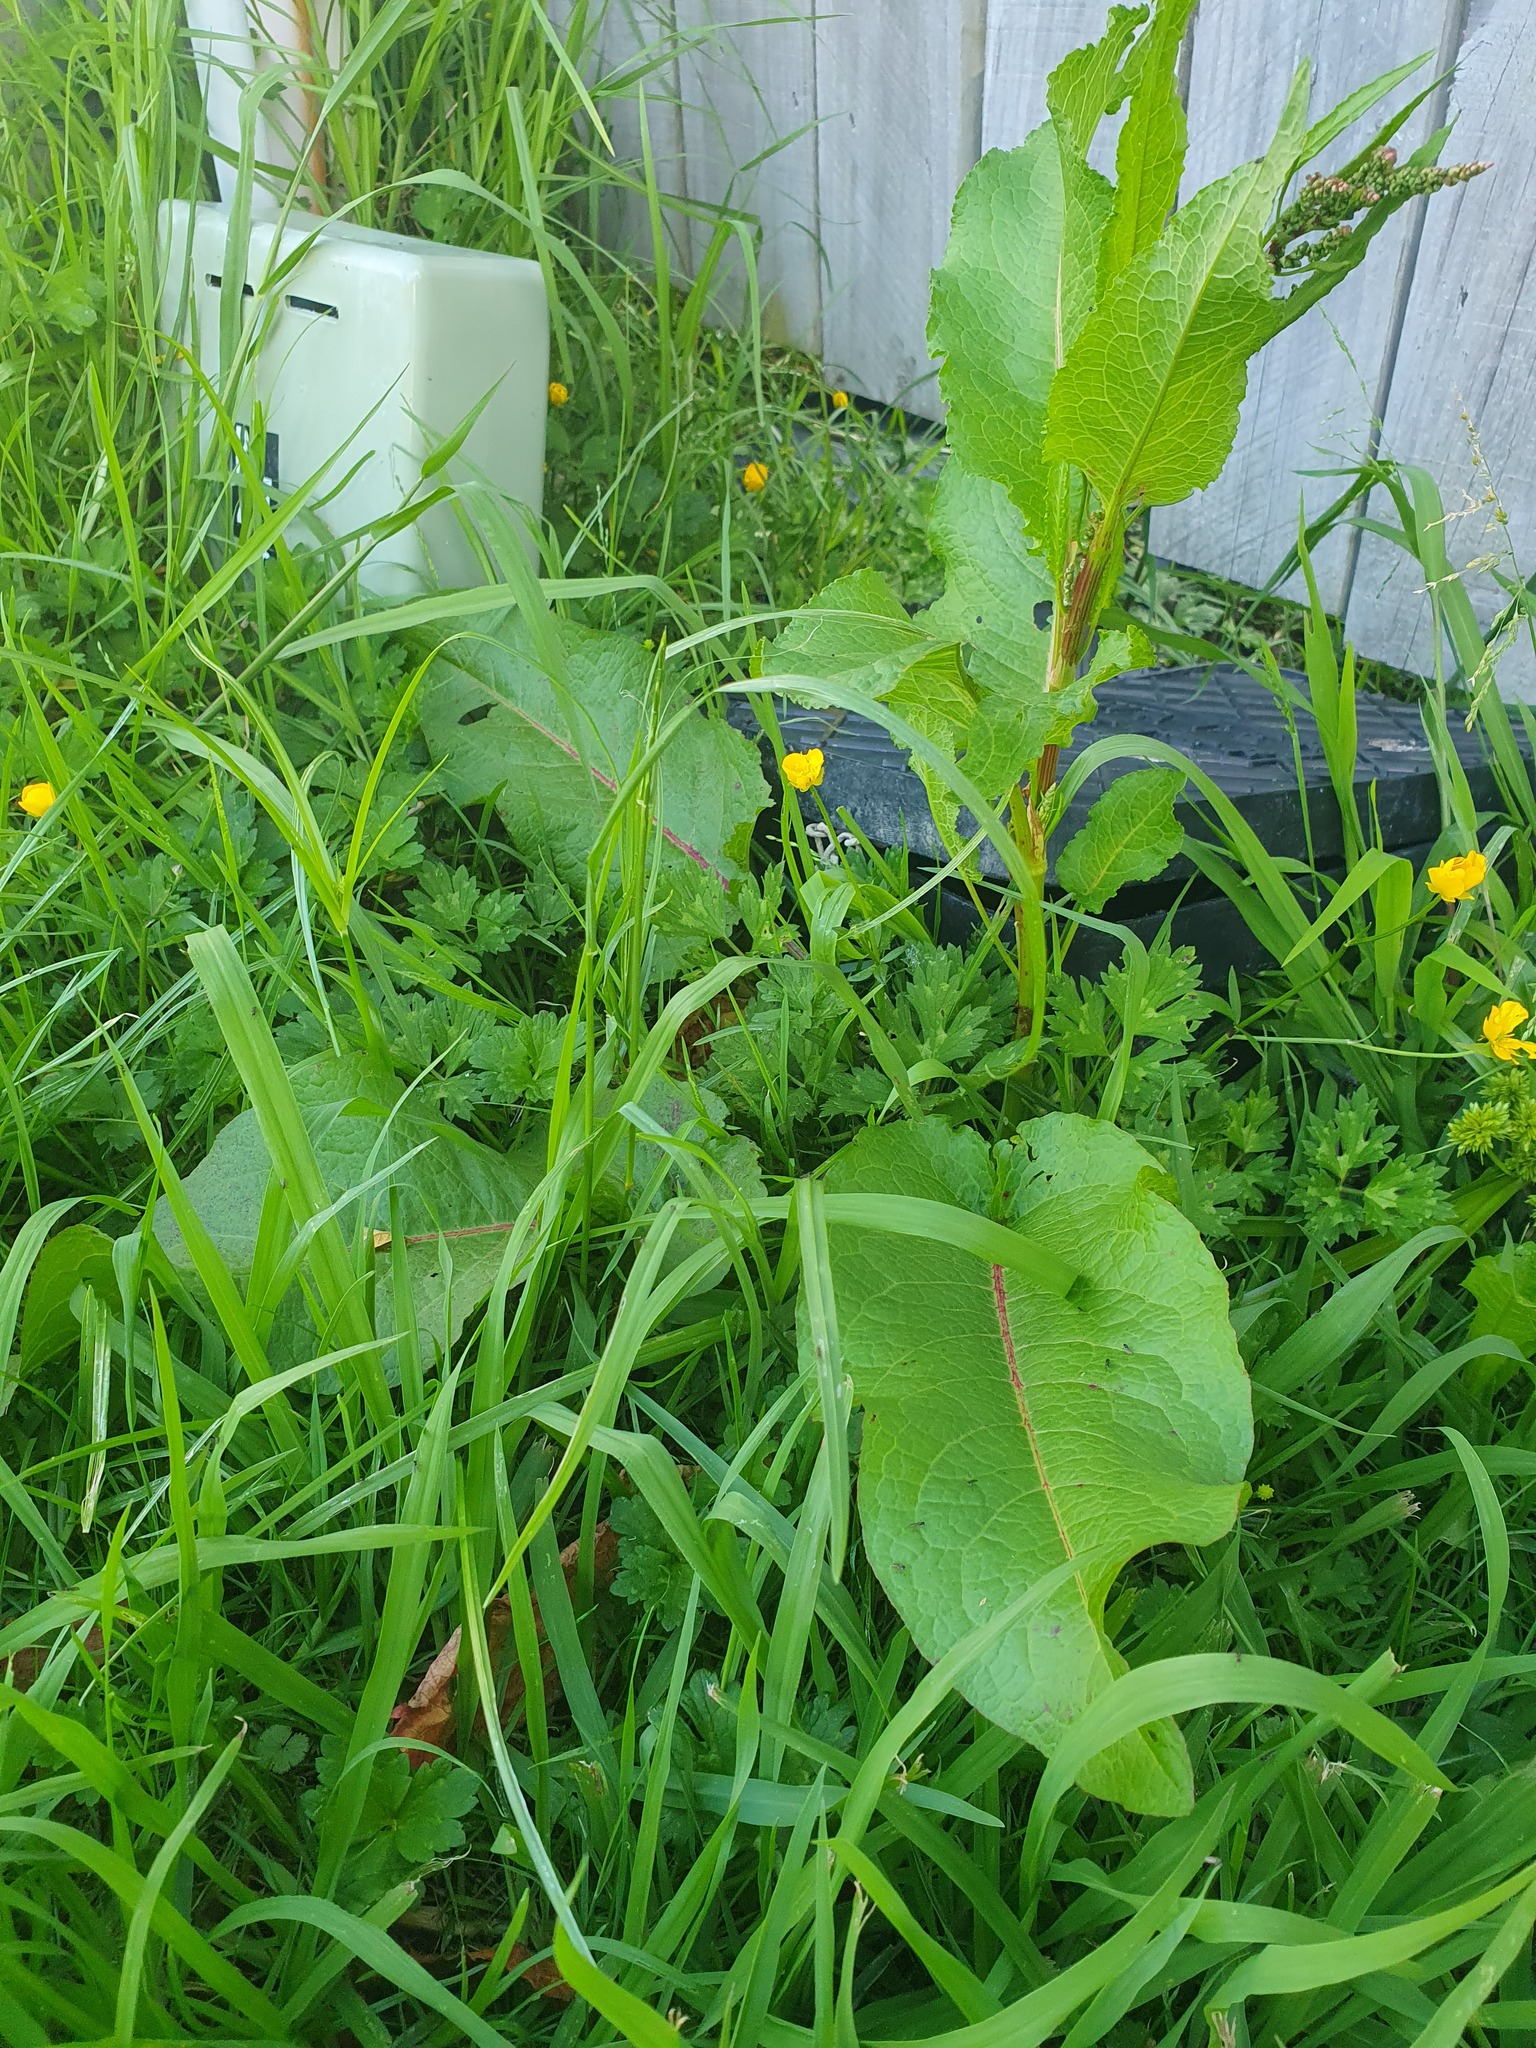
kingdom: Plantae
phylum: Tracheophyta
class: Magnoliopsida
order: Caryophyllales
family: Polygonaceae
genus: Rumex
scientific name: Rumex obtusifolius
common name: Bitter dock
